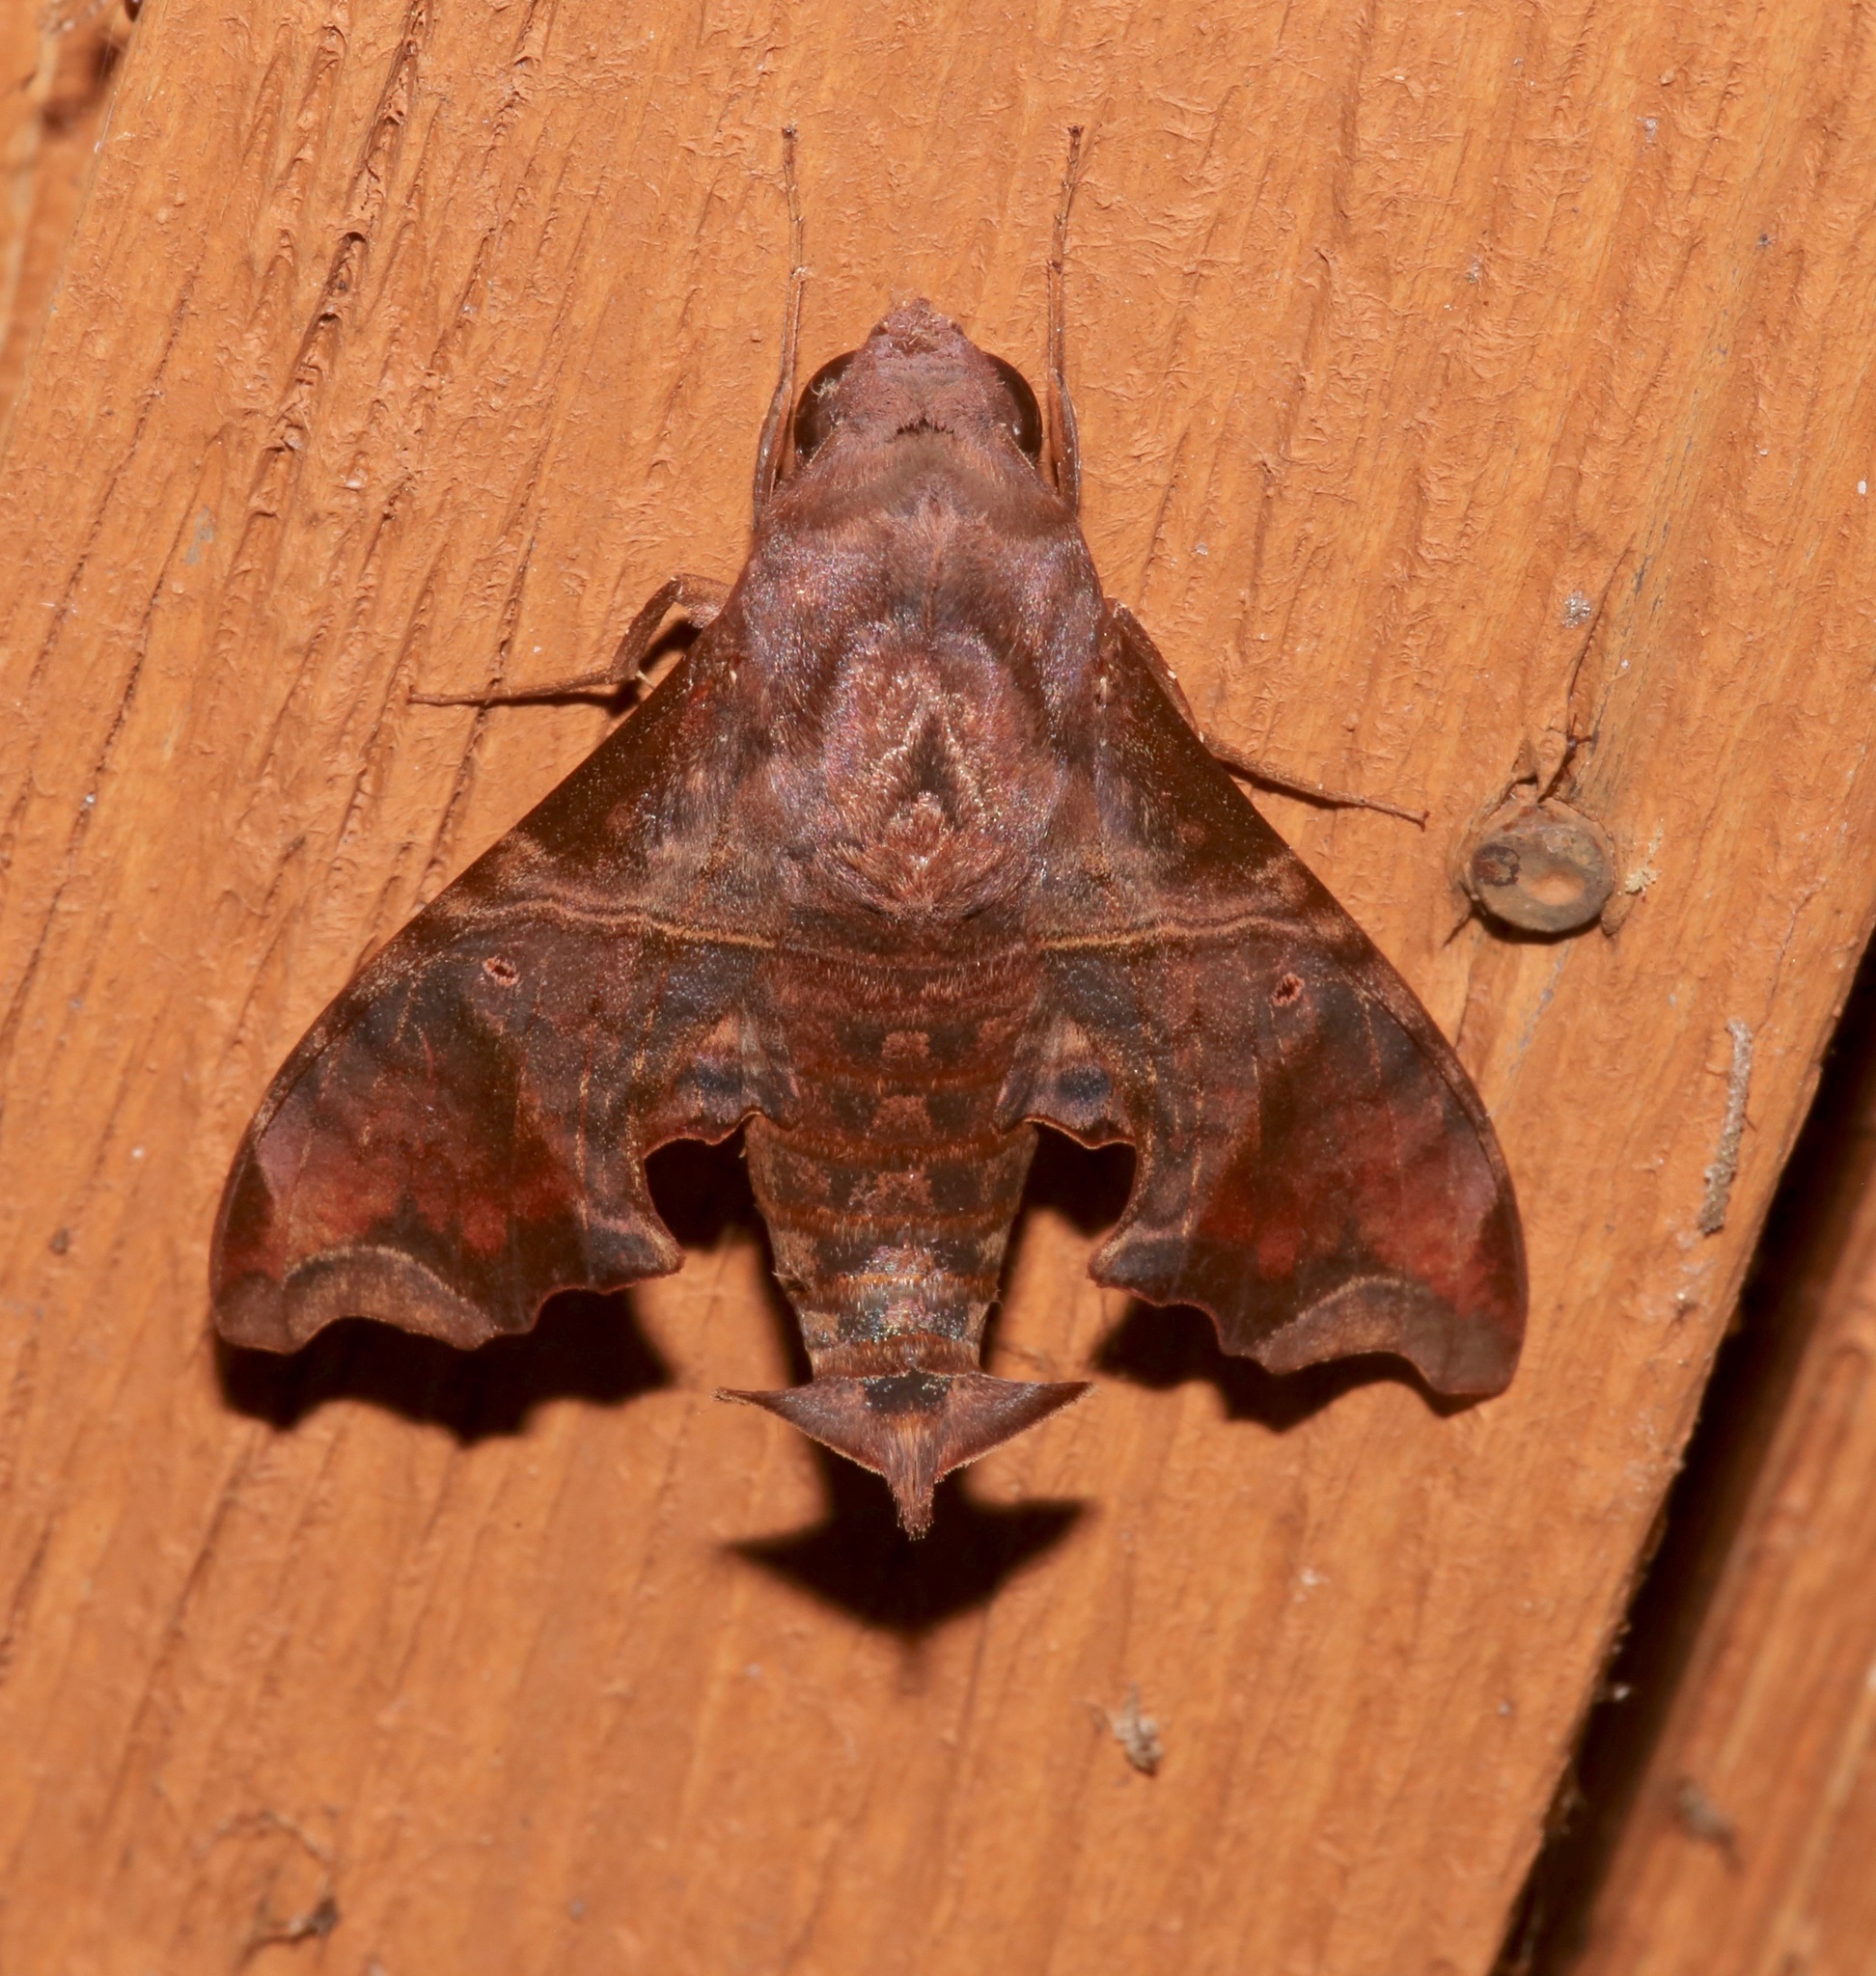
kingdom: Animalia
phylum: Arthropoda
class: Insecta
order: Lepidoptera
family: Sphingidae
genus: Enyo
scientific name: Enyo lugubris
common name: Mournful sphinx
